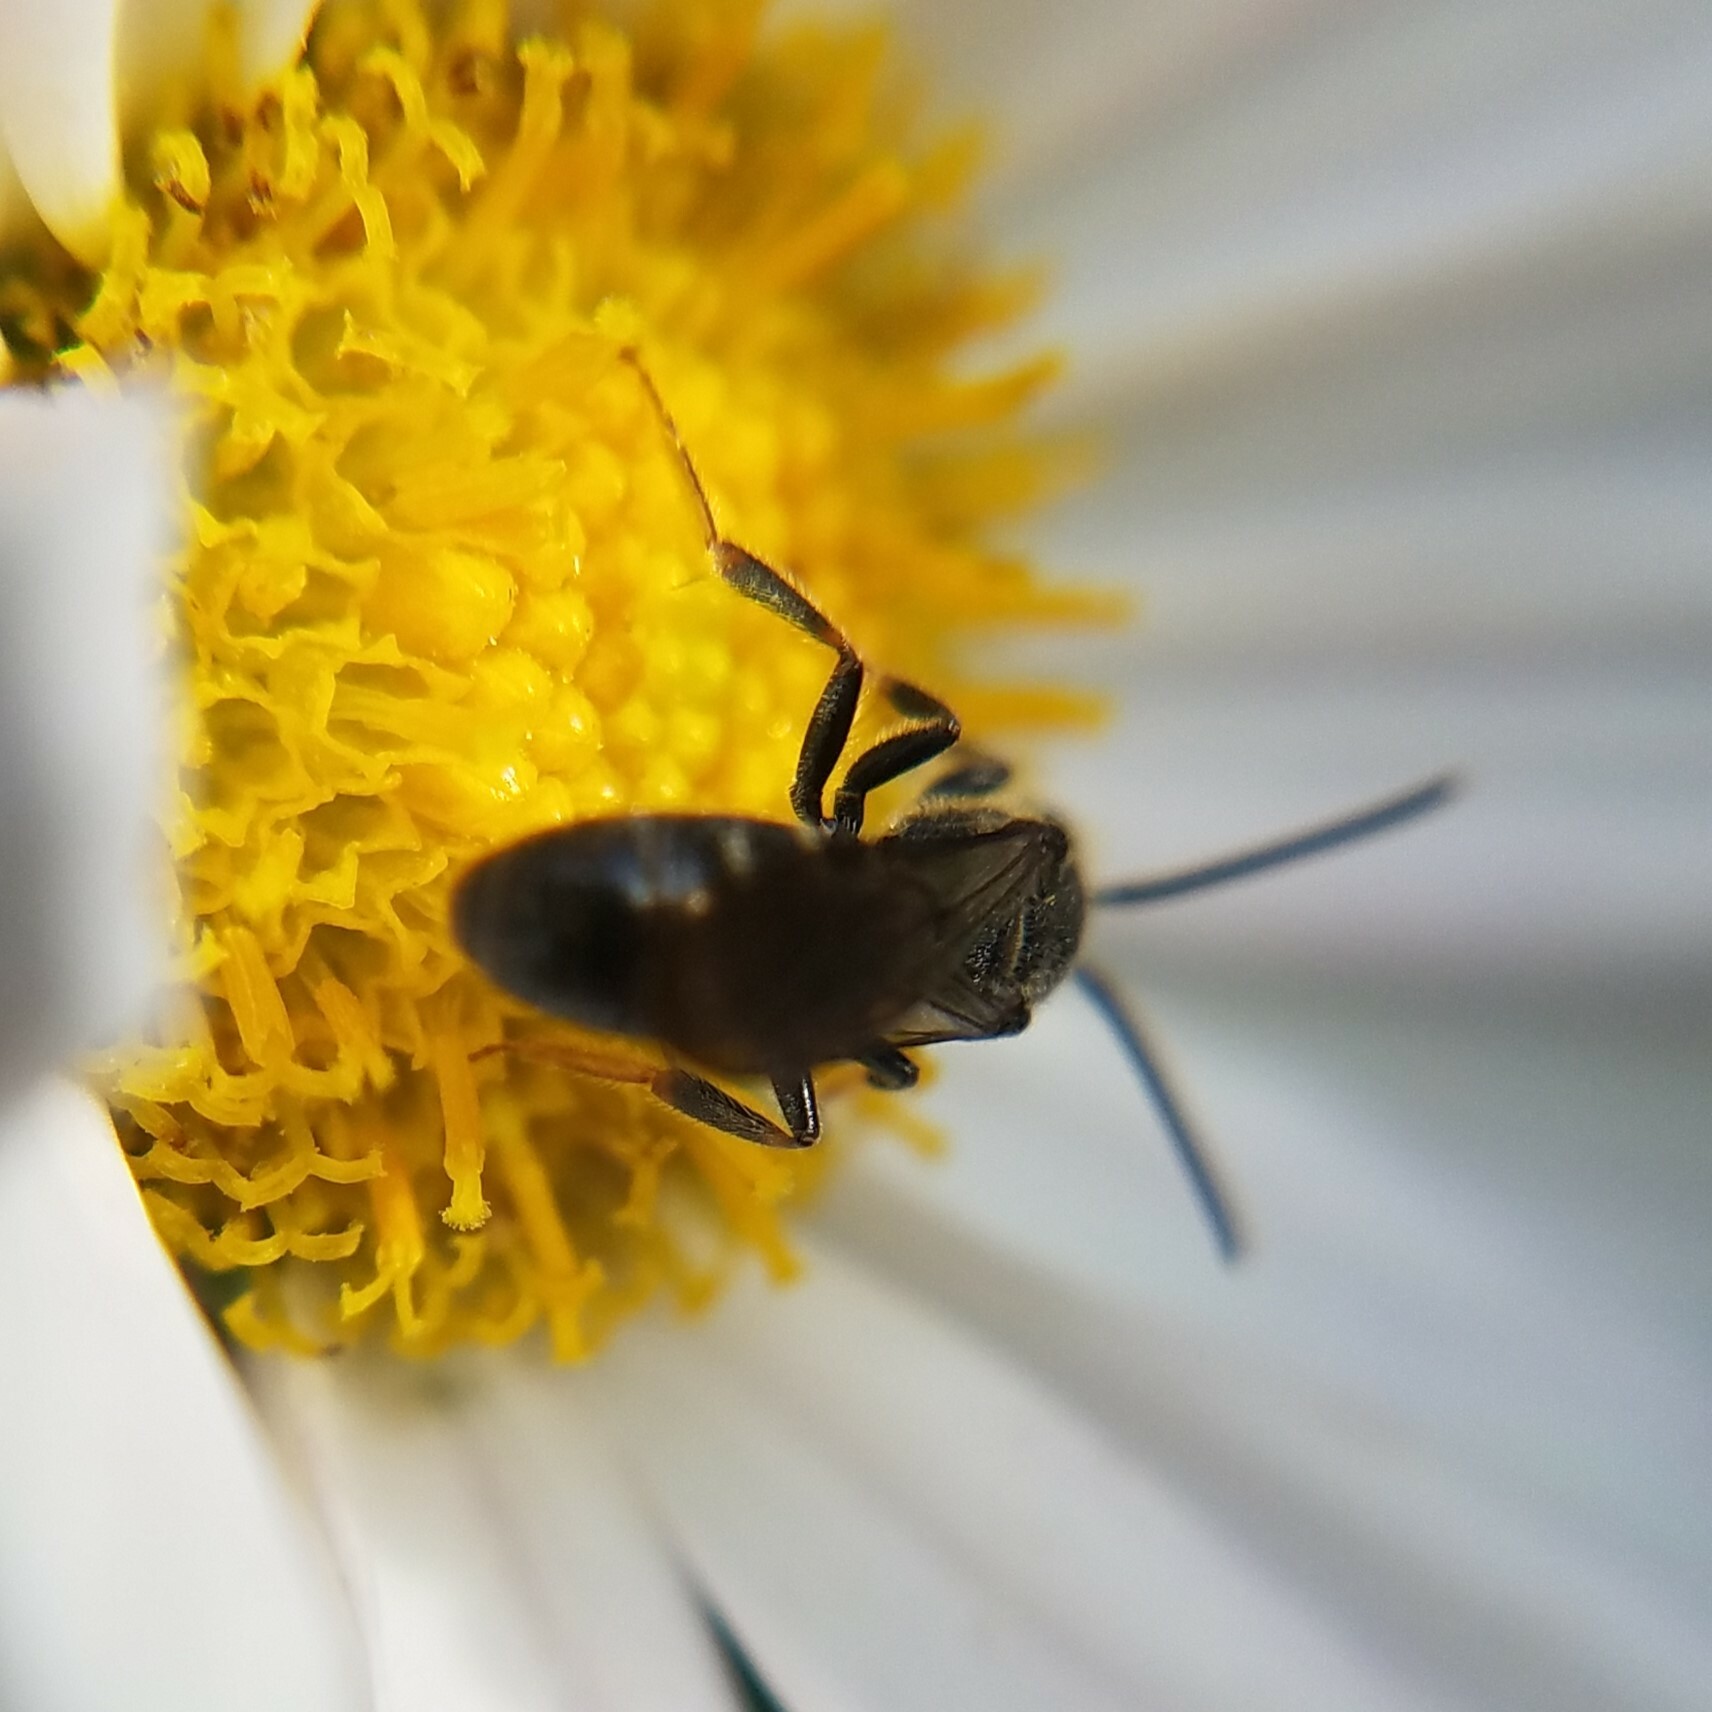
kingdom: Animalia
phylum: Arthropoda
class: Insecta
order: Hymenoptera
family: Halictidae
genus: Lasioglossum
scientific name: Lasioglossum fuscipenne
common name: Brown-winged sweat bee
